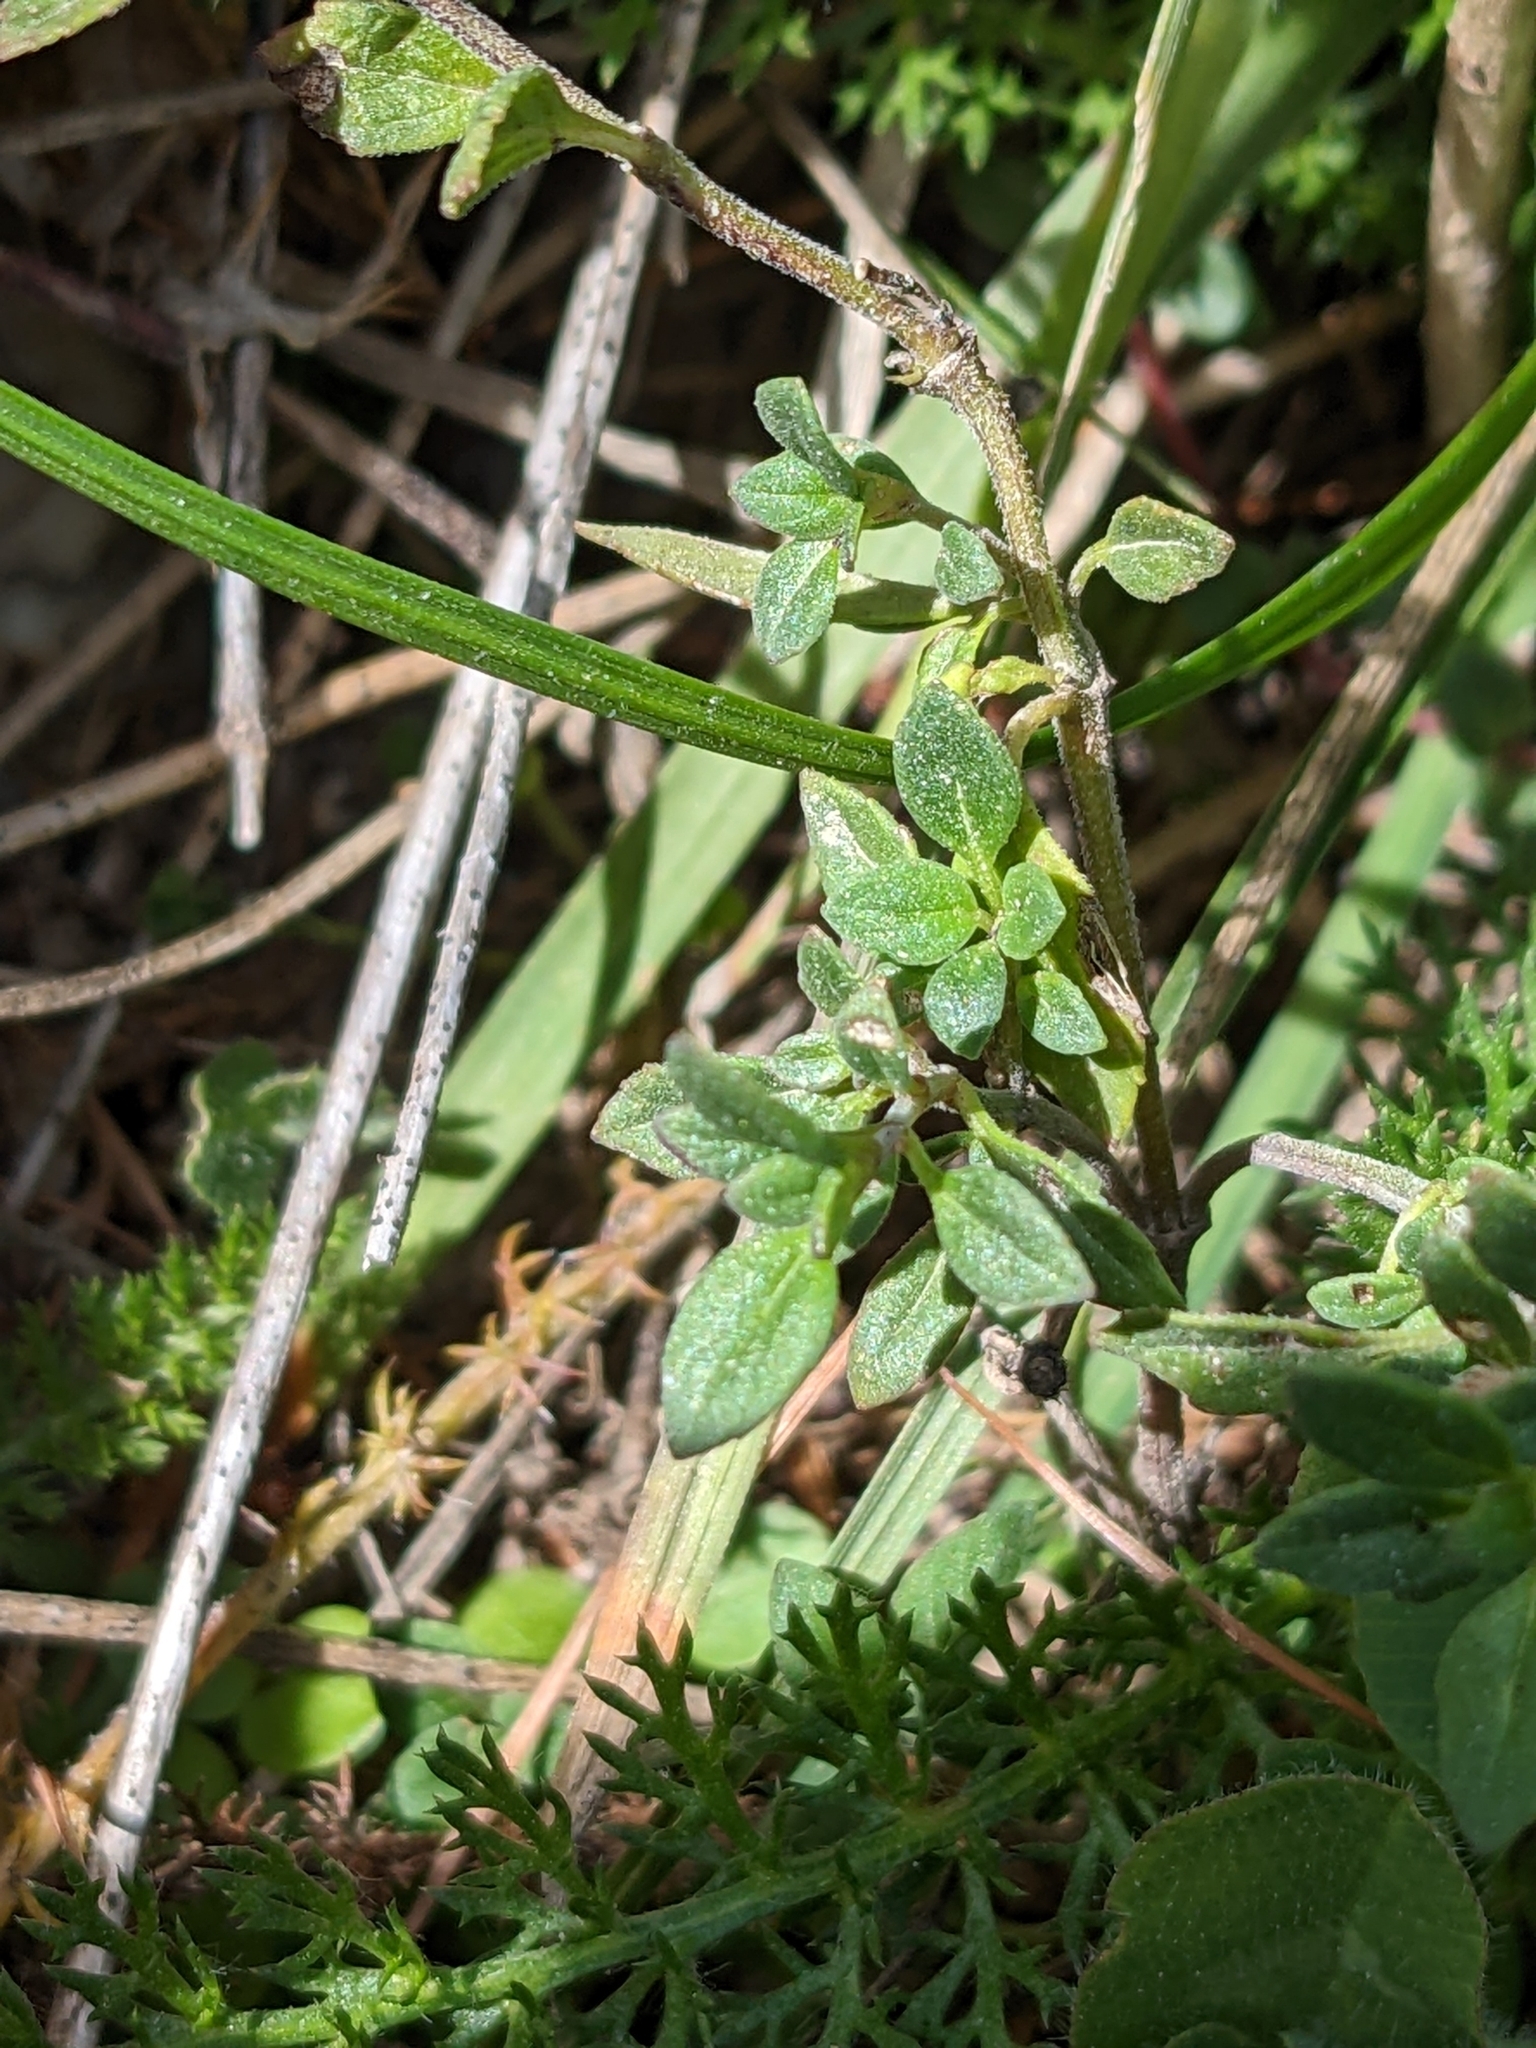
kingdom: Plantae
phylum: Tracheophyta
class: Magnoliopsida
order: Lamiales
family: Lamiaceae
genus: Clinopodium
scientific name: Clinopodium alpinum
